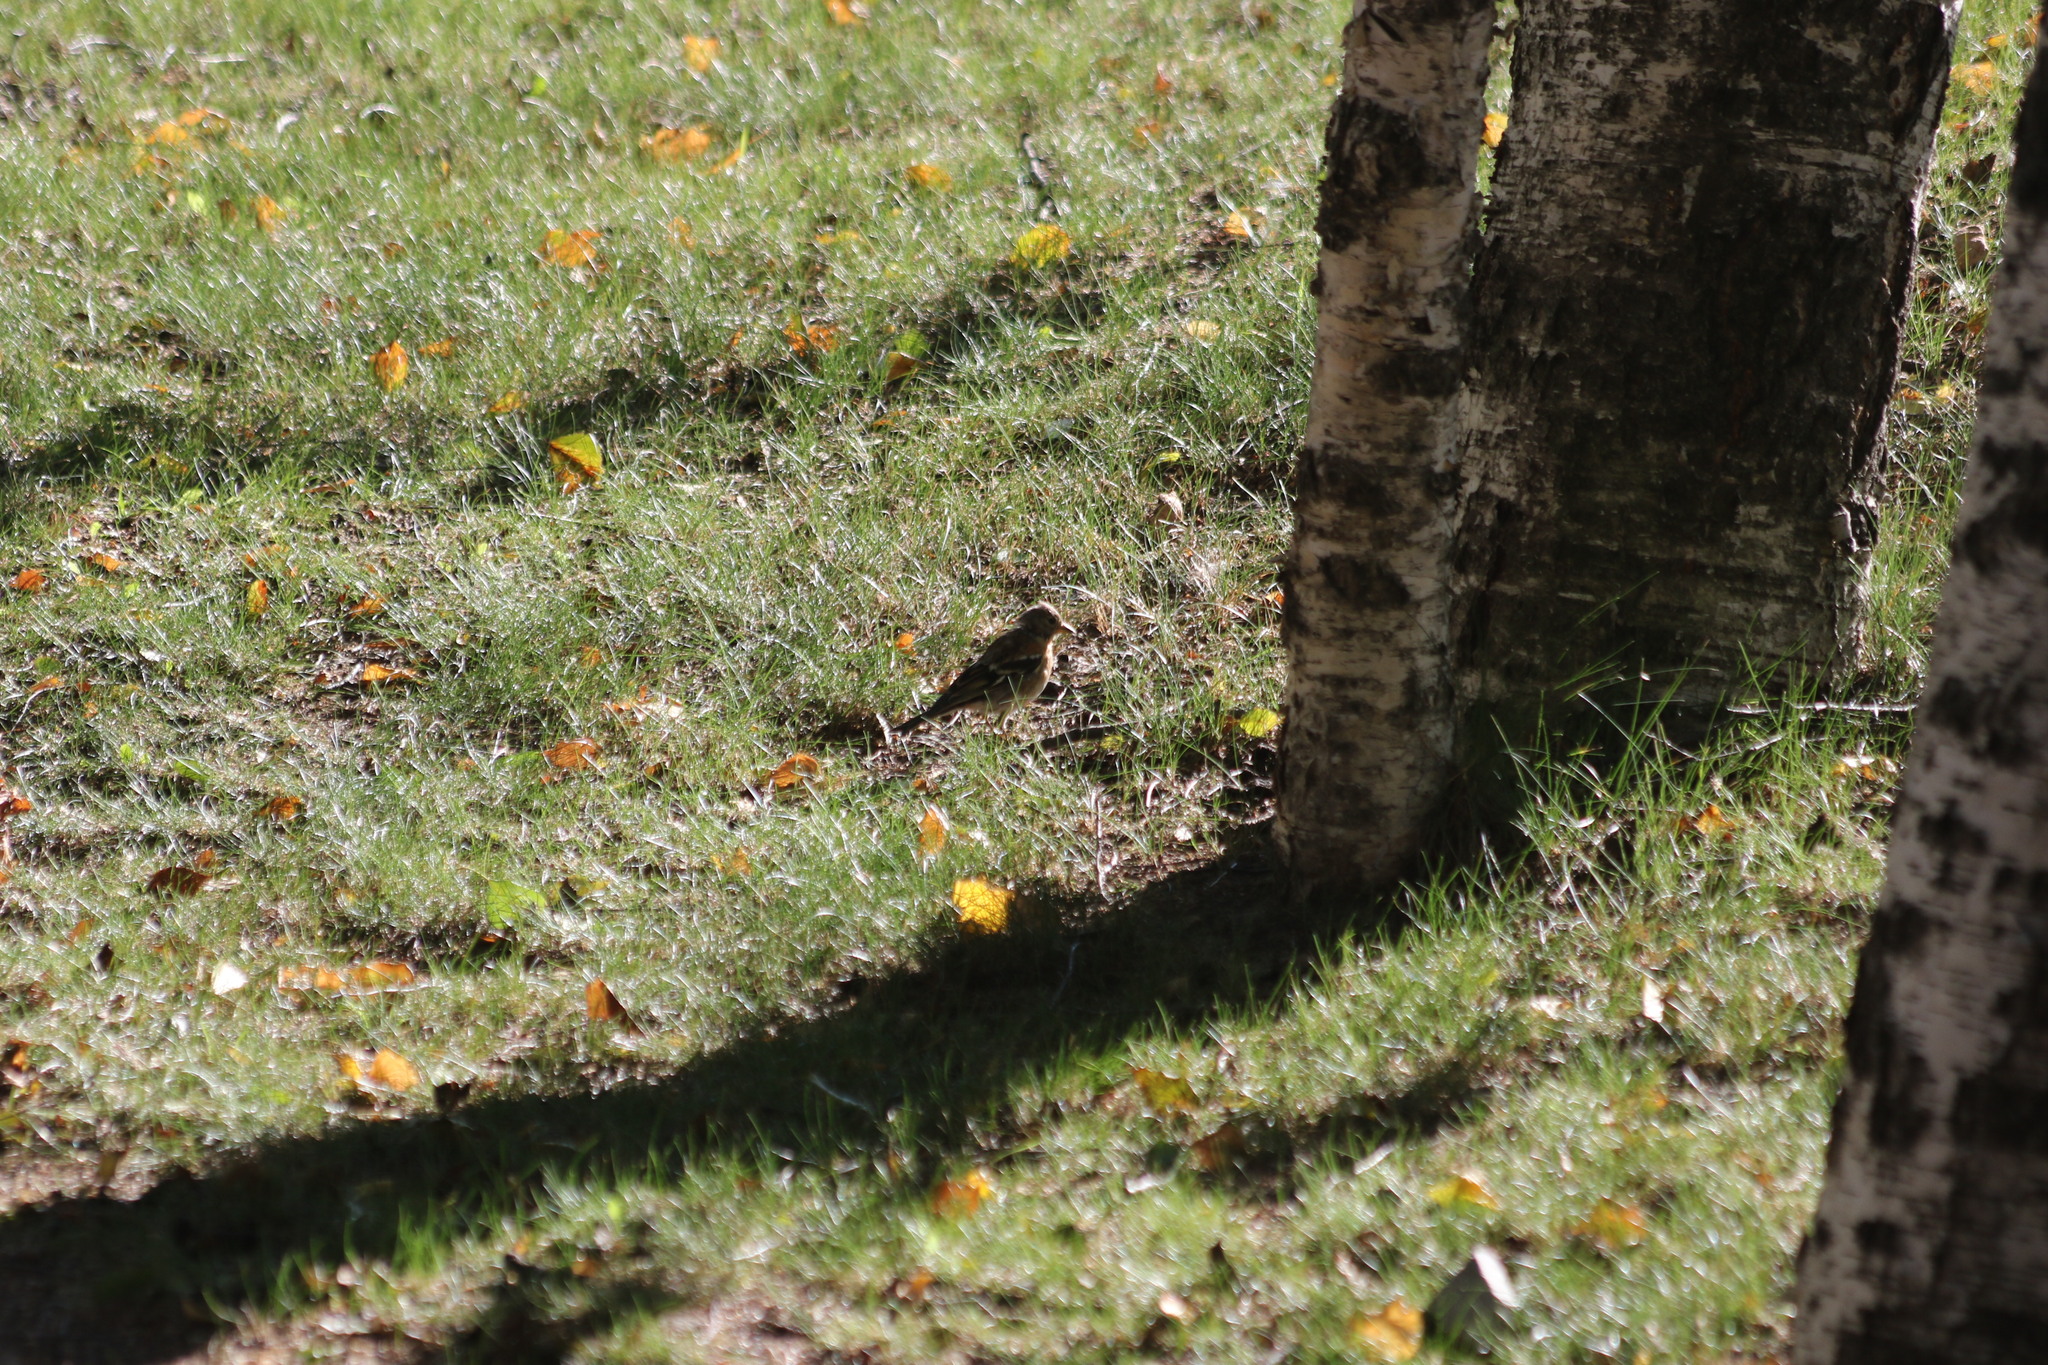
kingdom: Animalia
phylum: Chordata
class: Aves
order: Passeriformes
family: Fringillidae
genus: Fringilla
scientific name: Fringilla montifringilla
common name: Brambling
